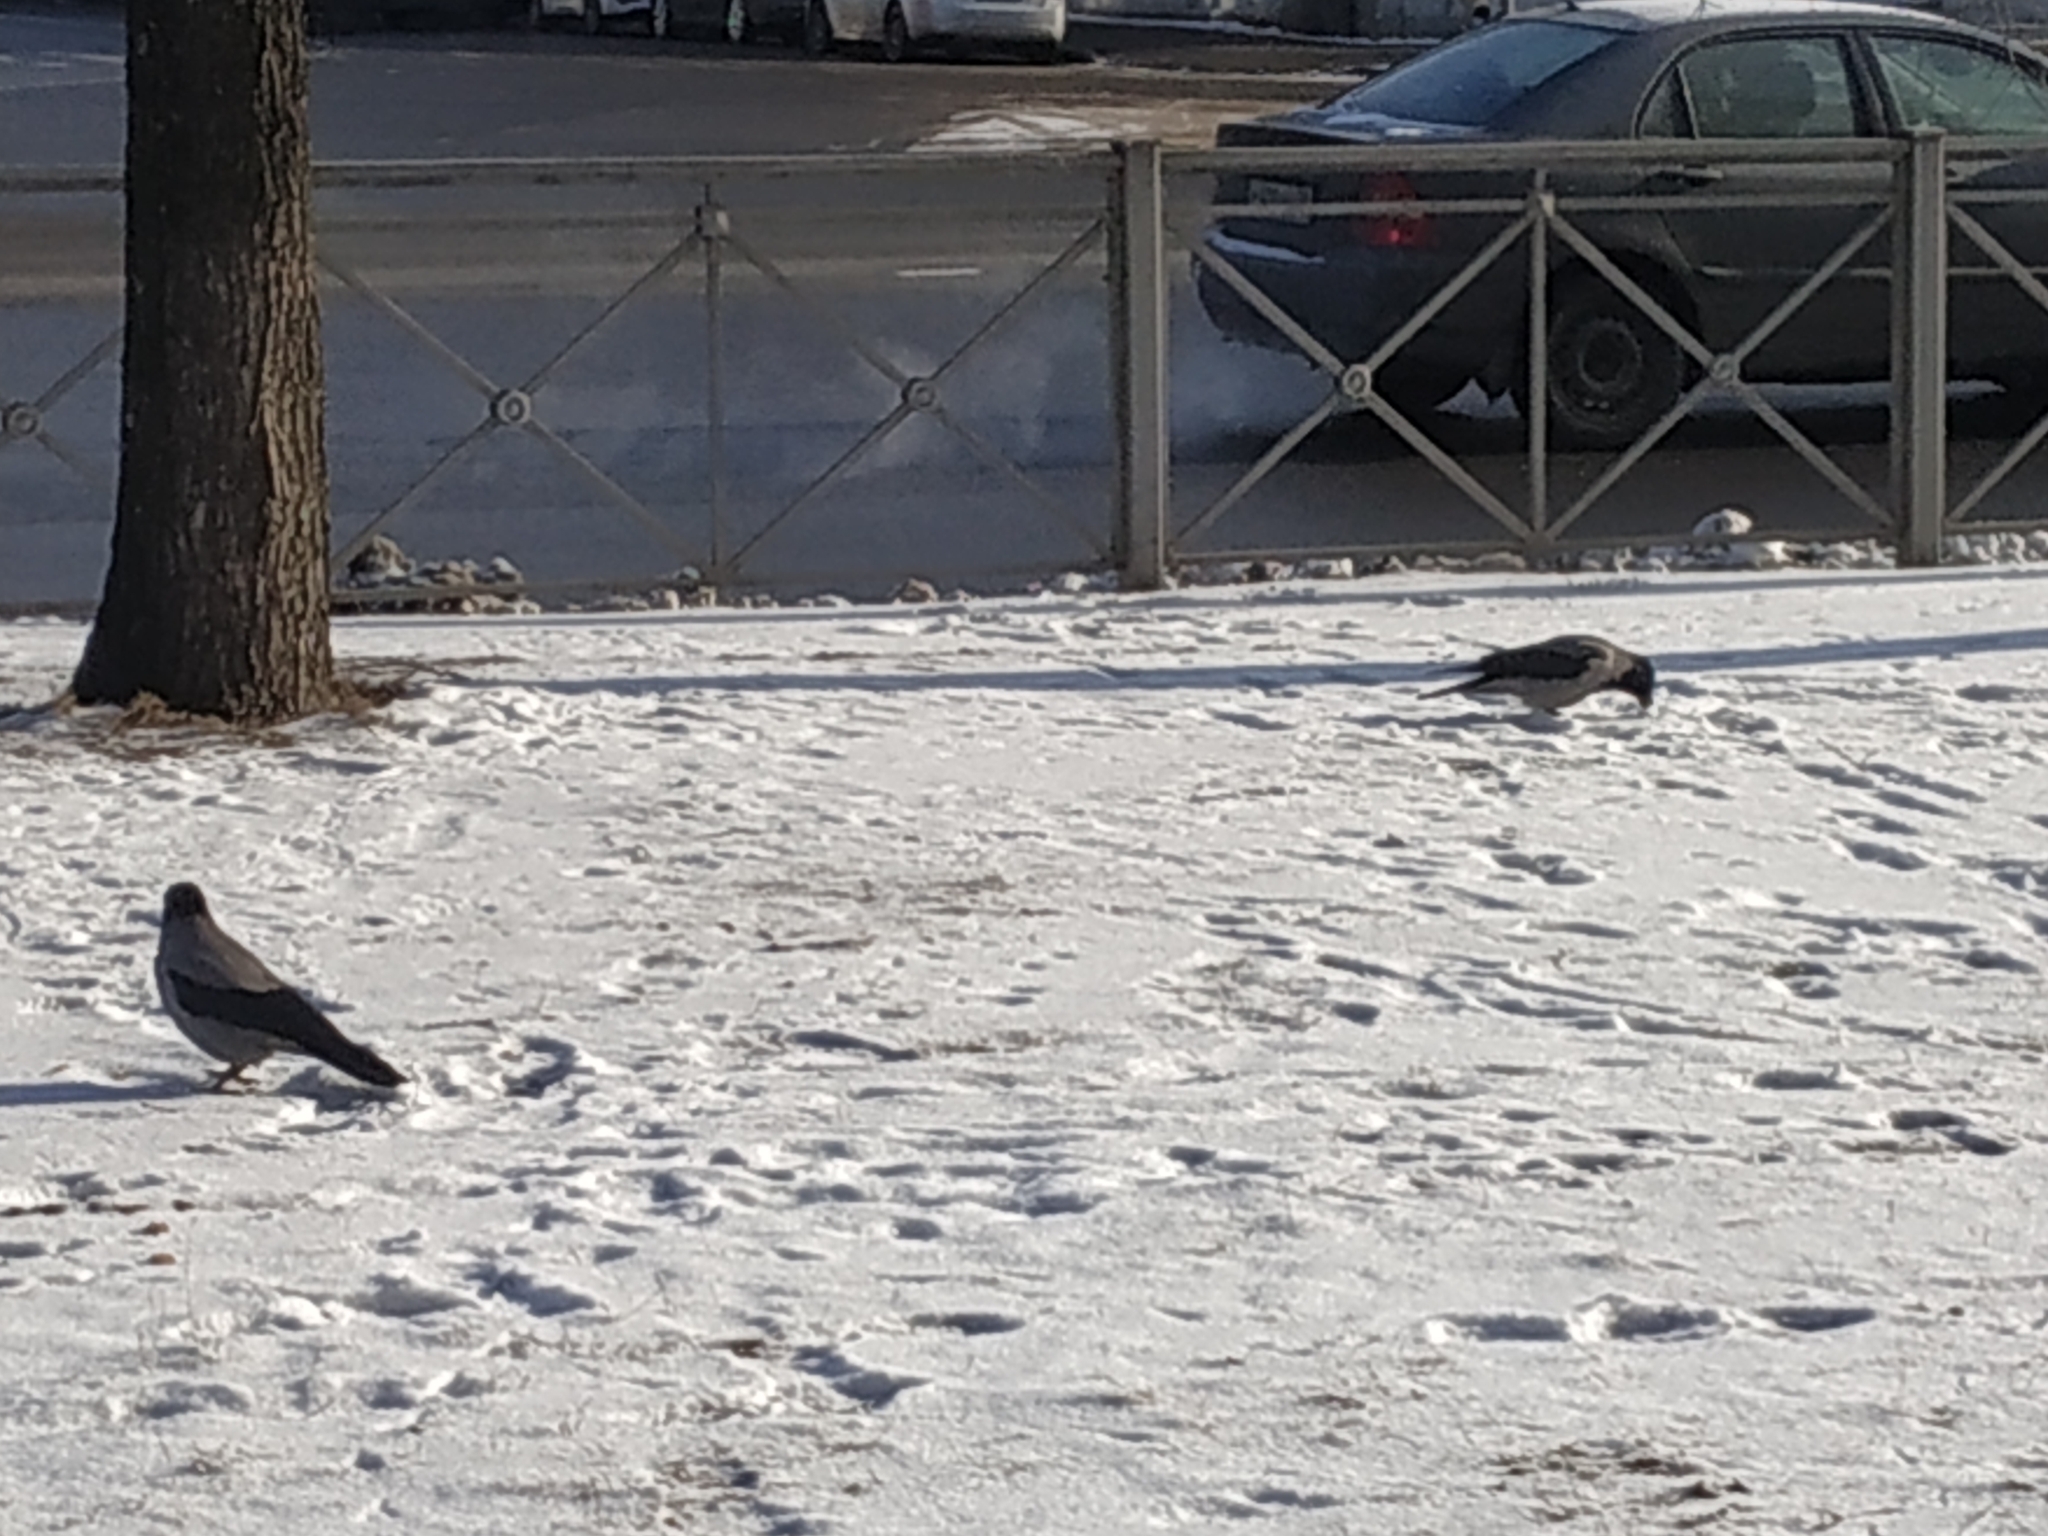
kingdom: Animalia
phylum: Chordata
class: Aves
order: Passeriformes
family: Corvidae
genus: Corvus
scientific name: Corvus cornix
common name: Hooded crow
